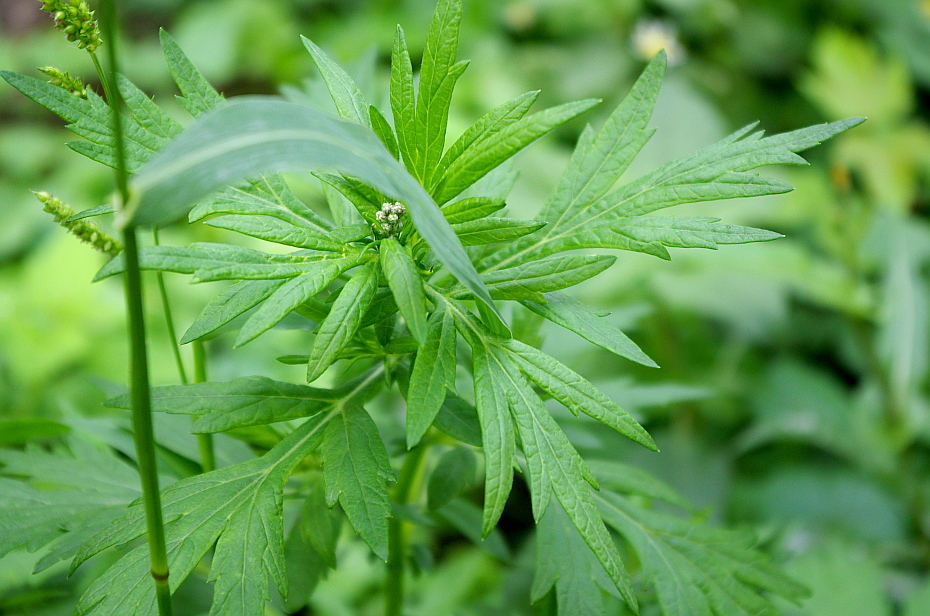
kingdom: Plantae
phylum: Tracheophyta
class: Magnoliopsida
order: Asterales
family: Asteraceae
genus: Artemisia
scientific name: Artemisia vulgaris
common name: Mugwort
